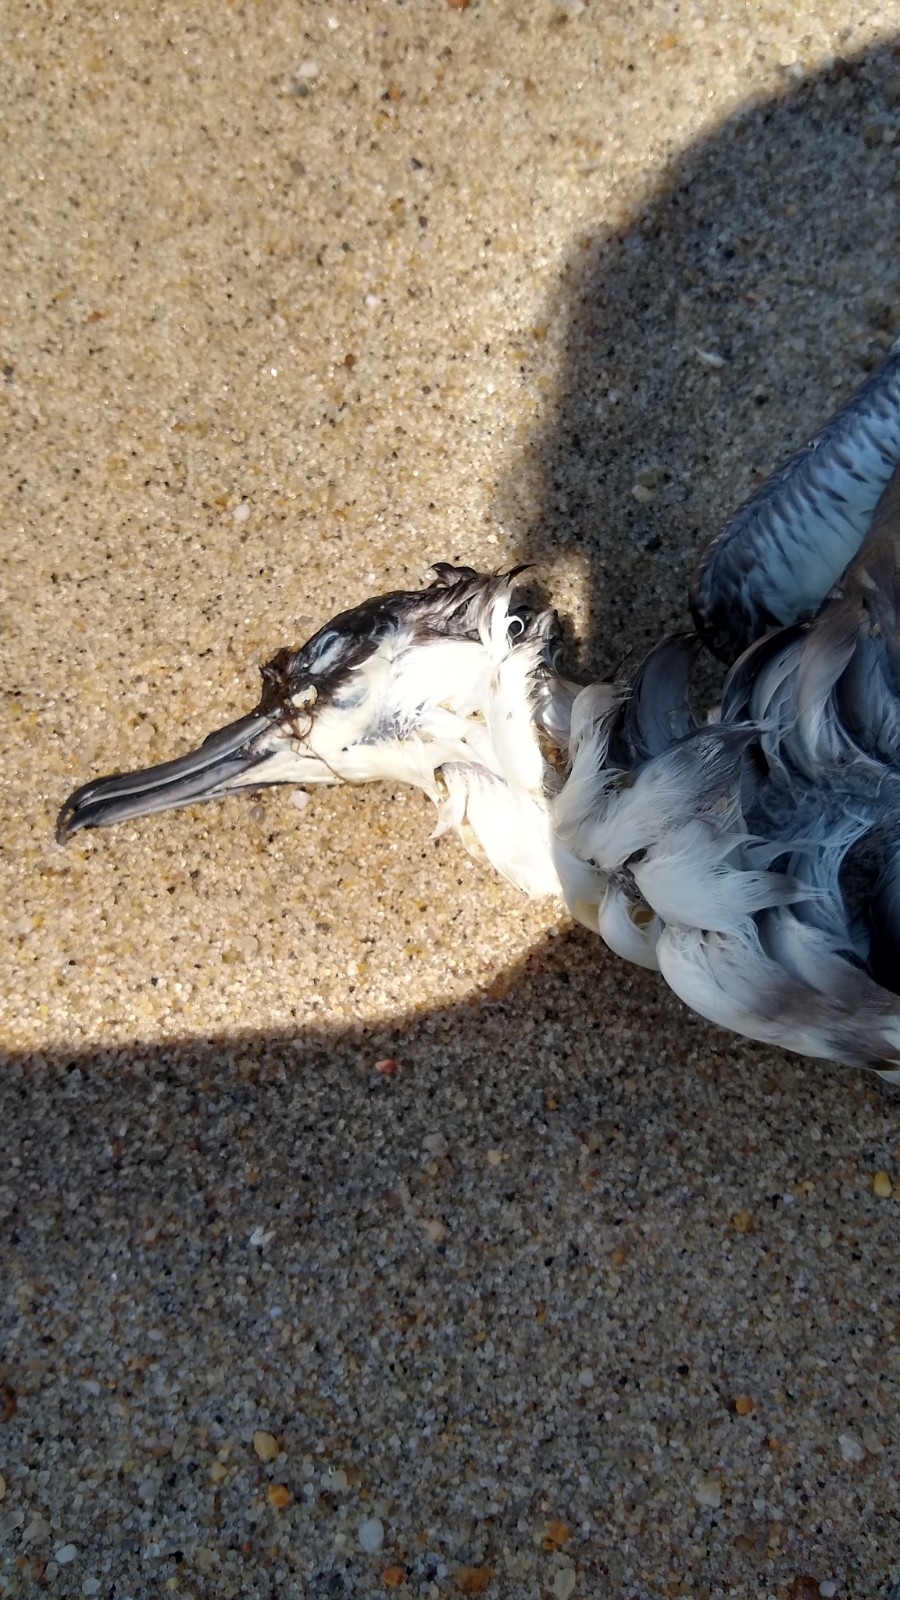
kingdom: Animalia
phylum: Chordata
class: Aves
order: Procellariiformes
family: Procellariidae
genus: Puffinus
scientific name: Puffinus gravis
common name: Great shearwater
